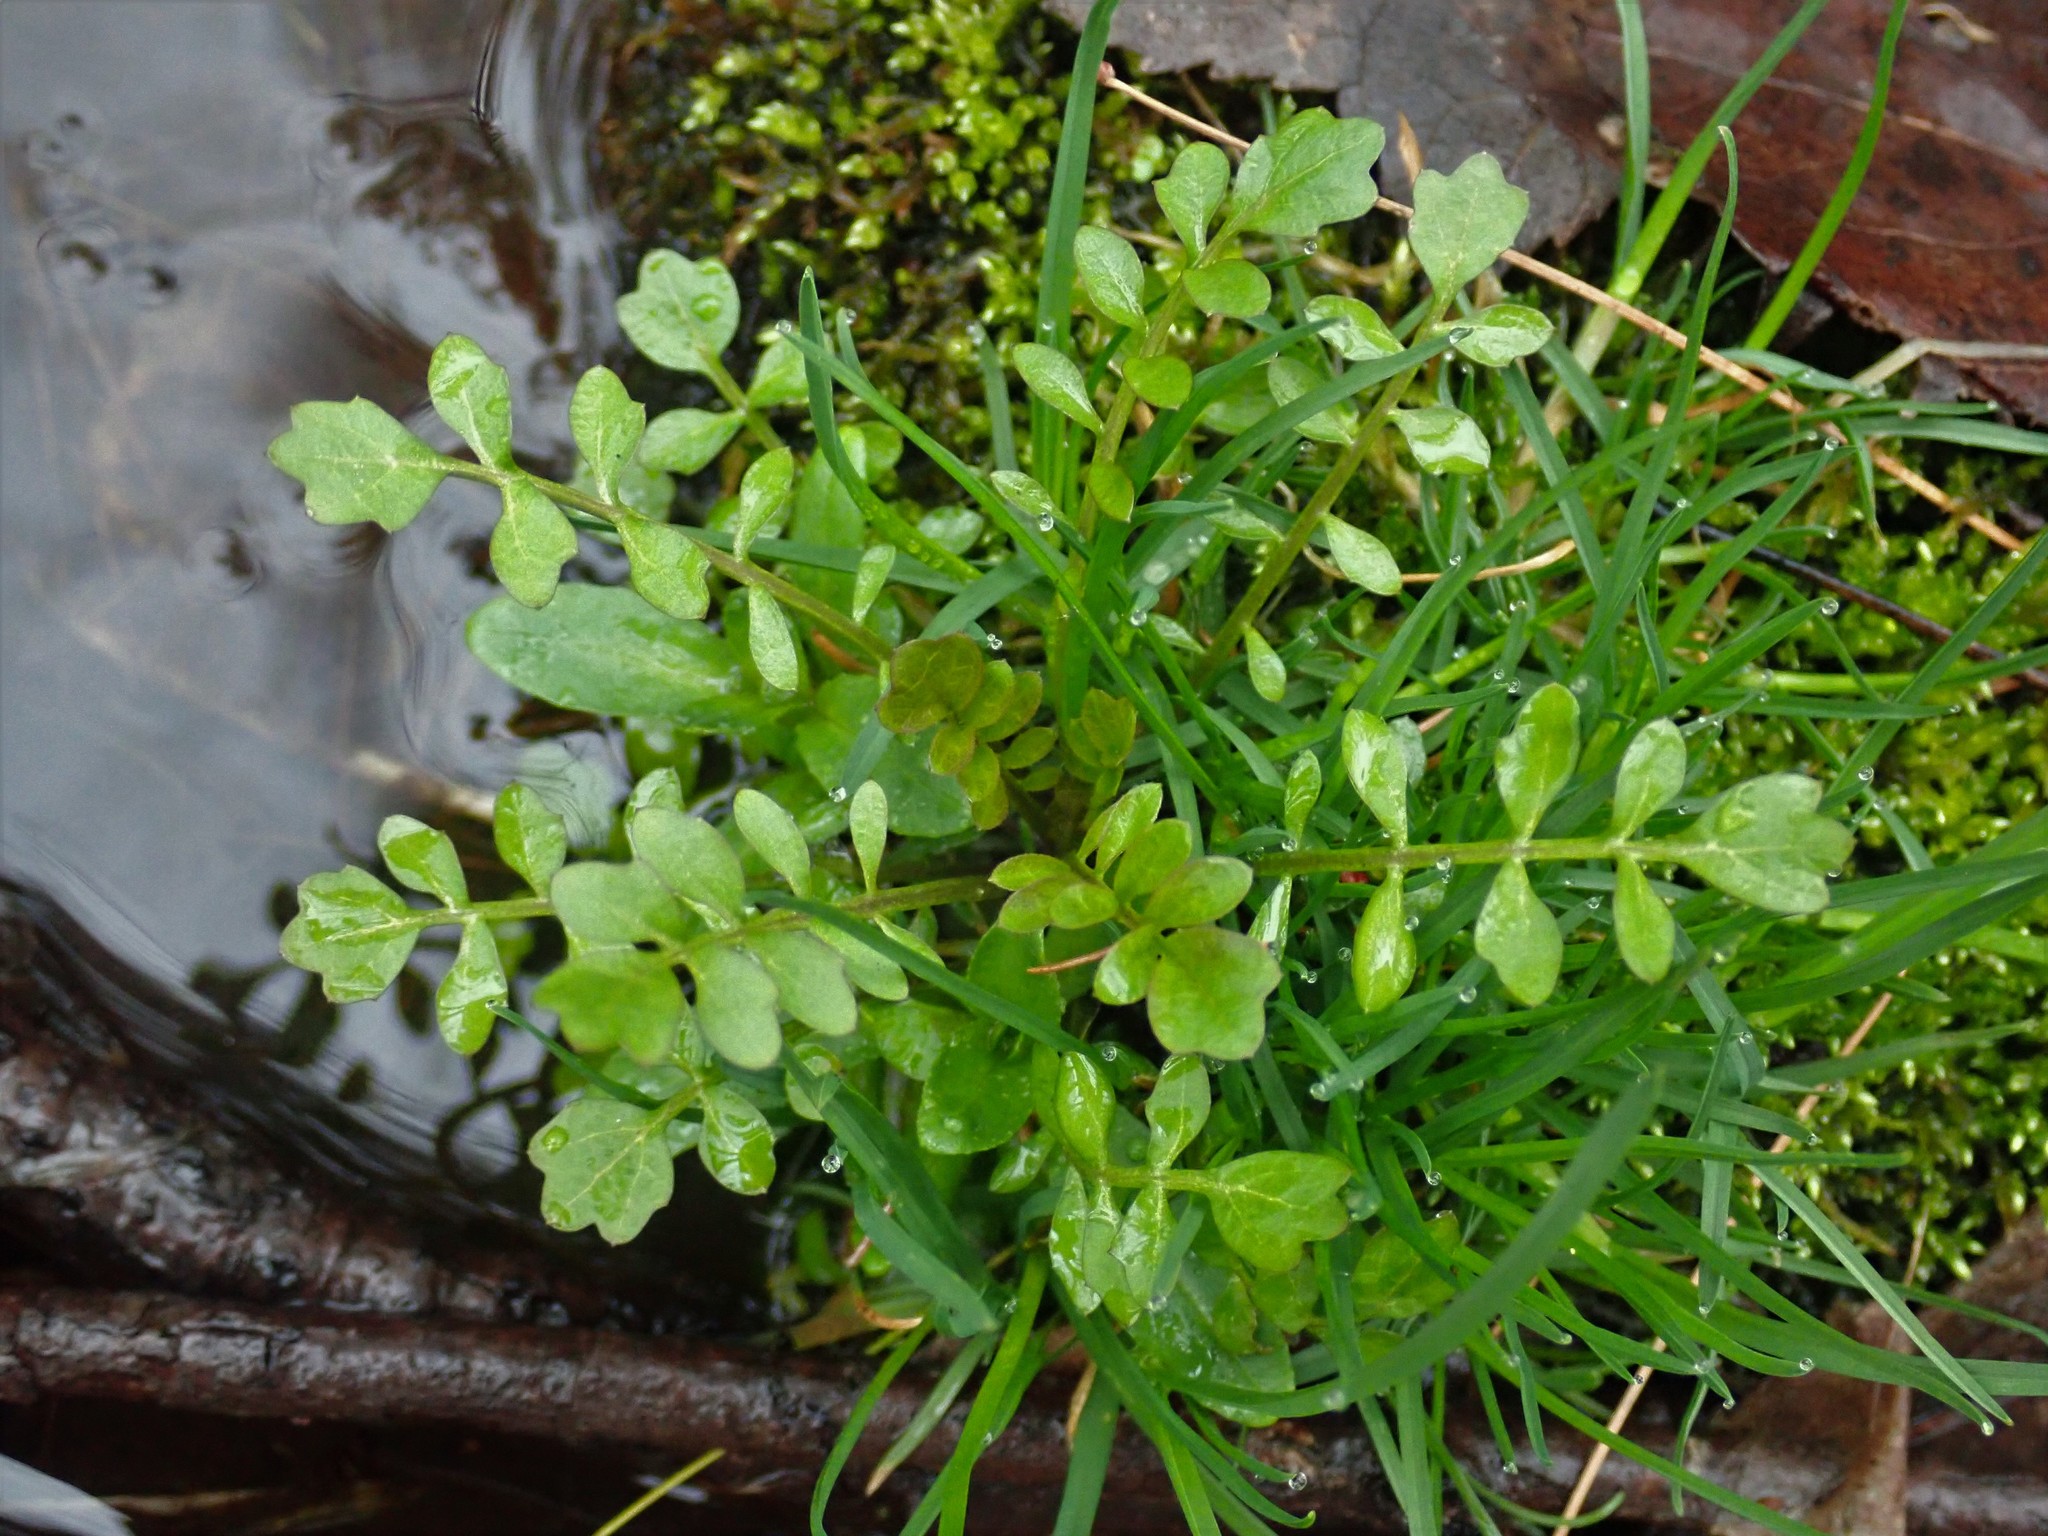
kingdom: Plantae
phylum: Tracheophyta
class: Magnoliopsida
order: Brassicales
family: Brassicaceae
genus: Cardamine
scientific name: Cardamine
